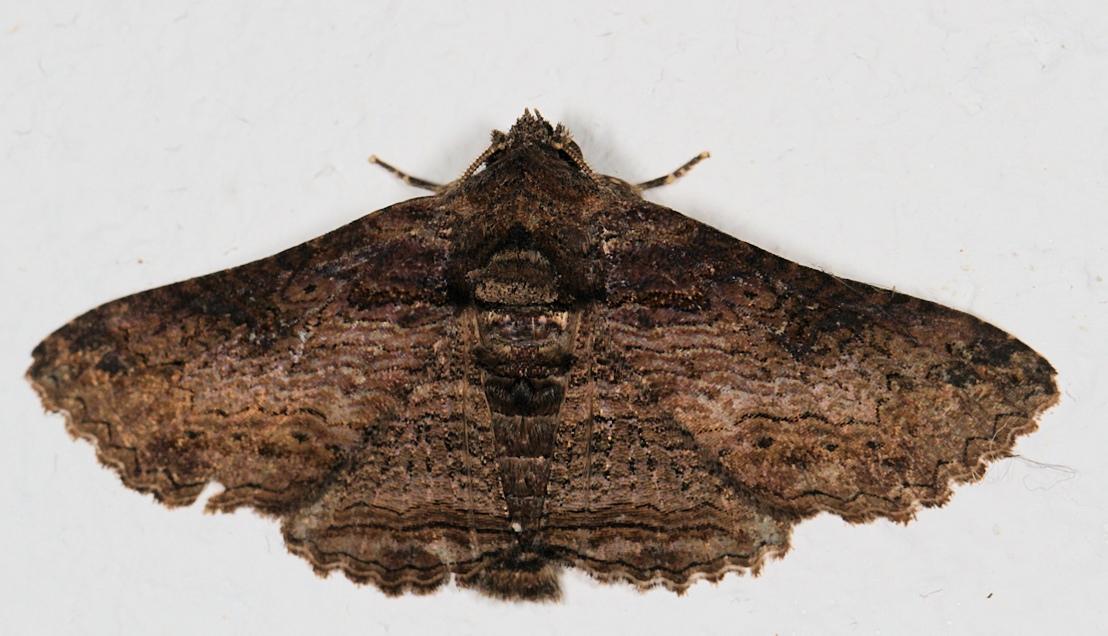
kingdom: Animalia
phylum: Arthropoda
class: Insecta
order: Lepidoptera
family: Erebidae
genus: Pericyma
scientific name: Pericyma mendax
